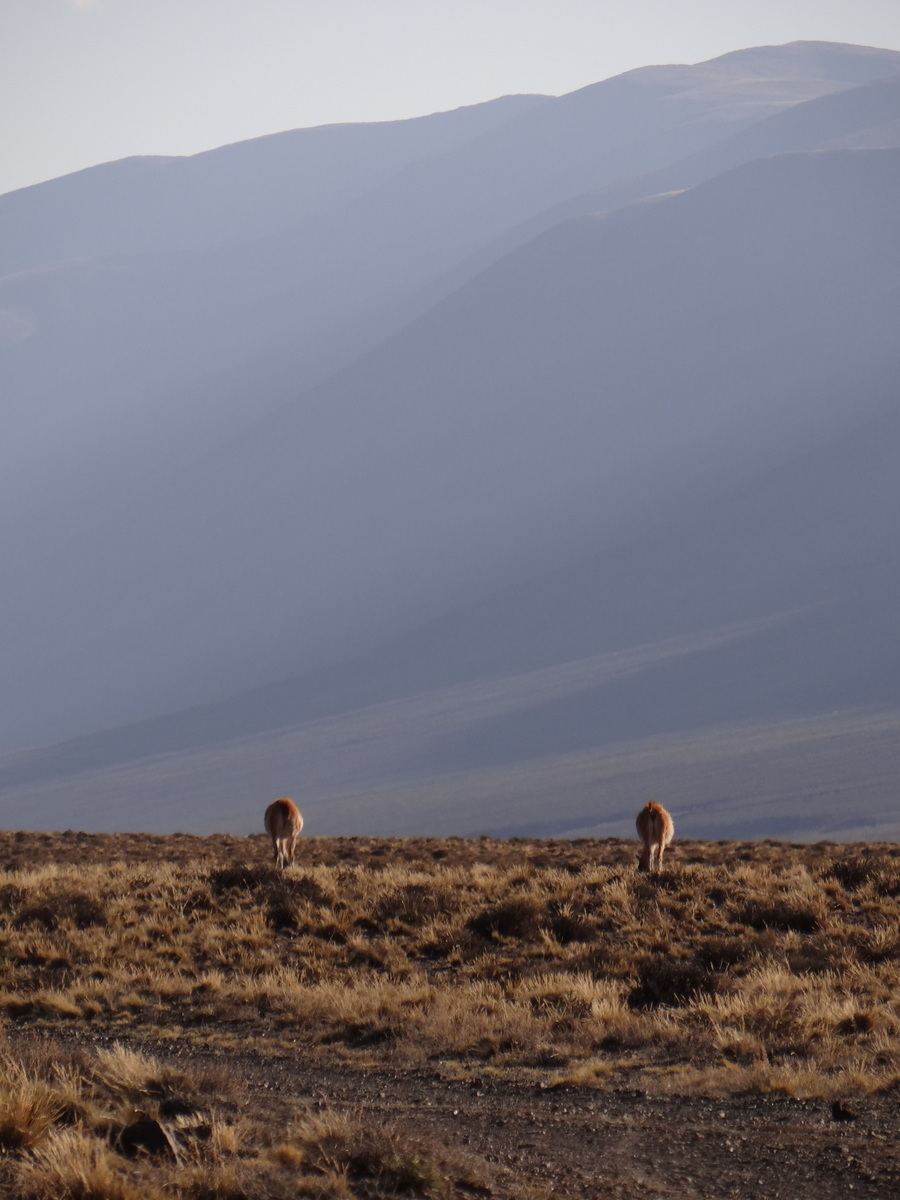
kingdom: Animalia
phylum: Chordata
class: Mammalia
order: Artiodactyla
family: Camelidae
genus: Lama
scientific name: Lama glama
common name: Llama
